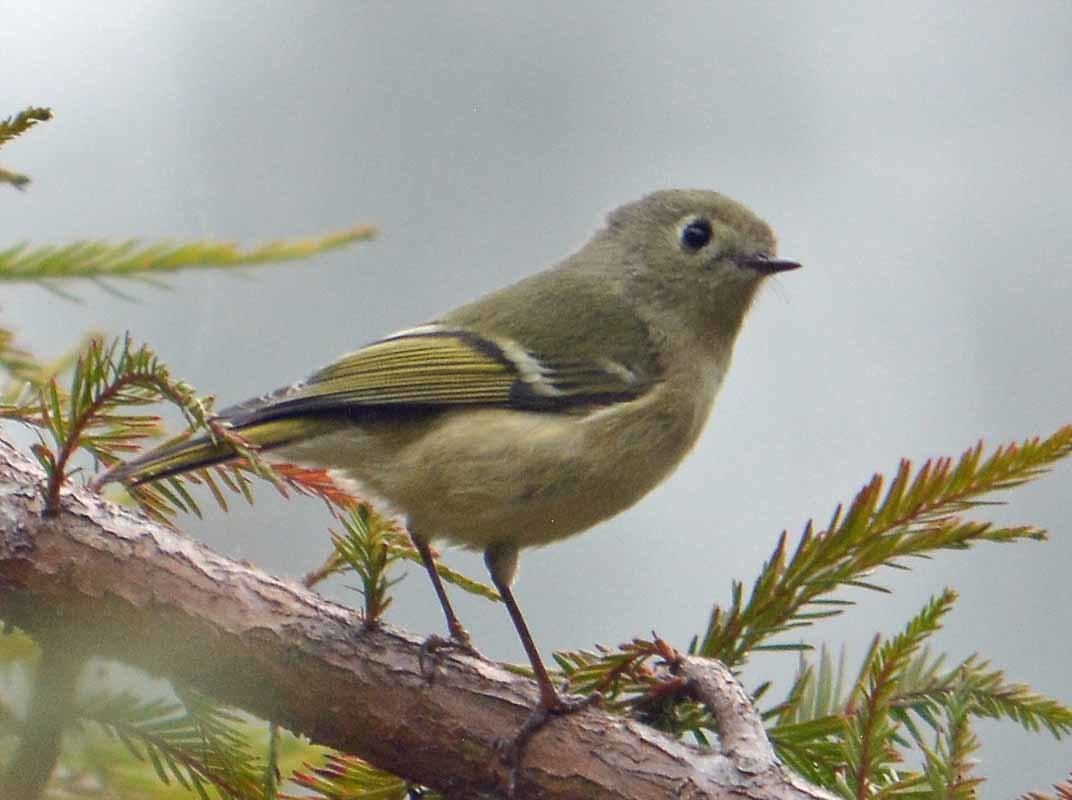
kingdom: Animalia
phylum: Chordata
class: Aves
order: Passeriformes
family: Regulidae
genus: Regulus
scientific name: Regulus calendula
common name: Ruby-crowned kinglet
